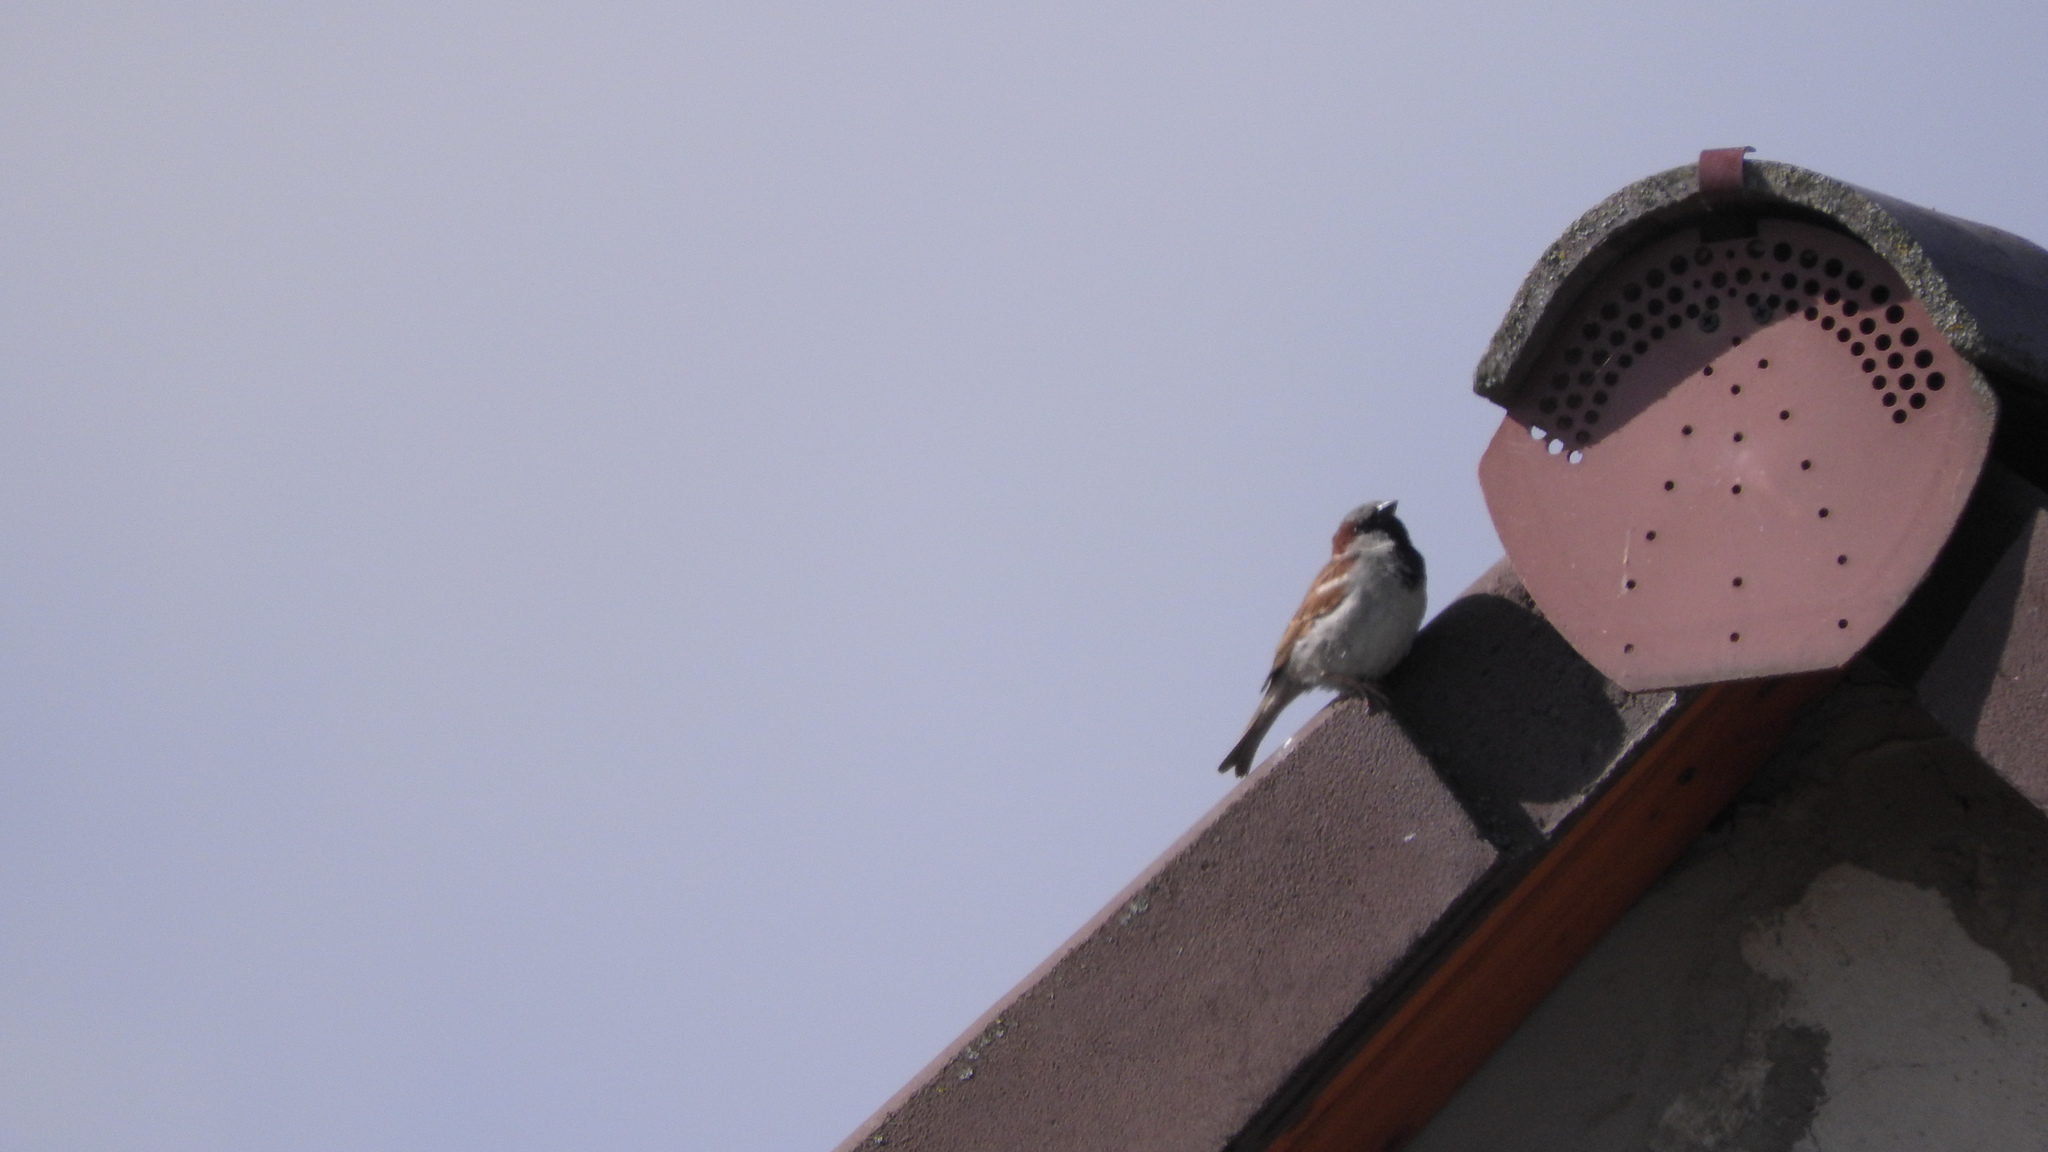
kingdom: Animalia
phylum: Chordata
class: Aves
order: Passeriformes
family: Passeridae
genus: Passer
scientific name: Passer domesticus
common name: House sparrow
